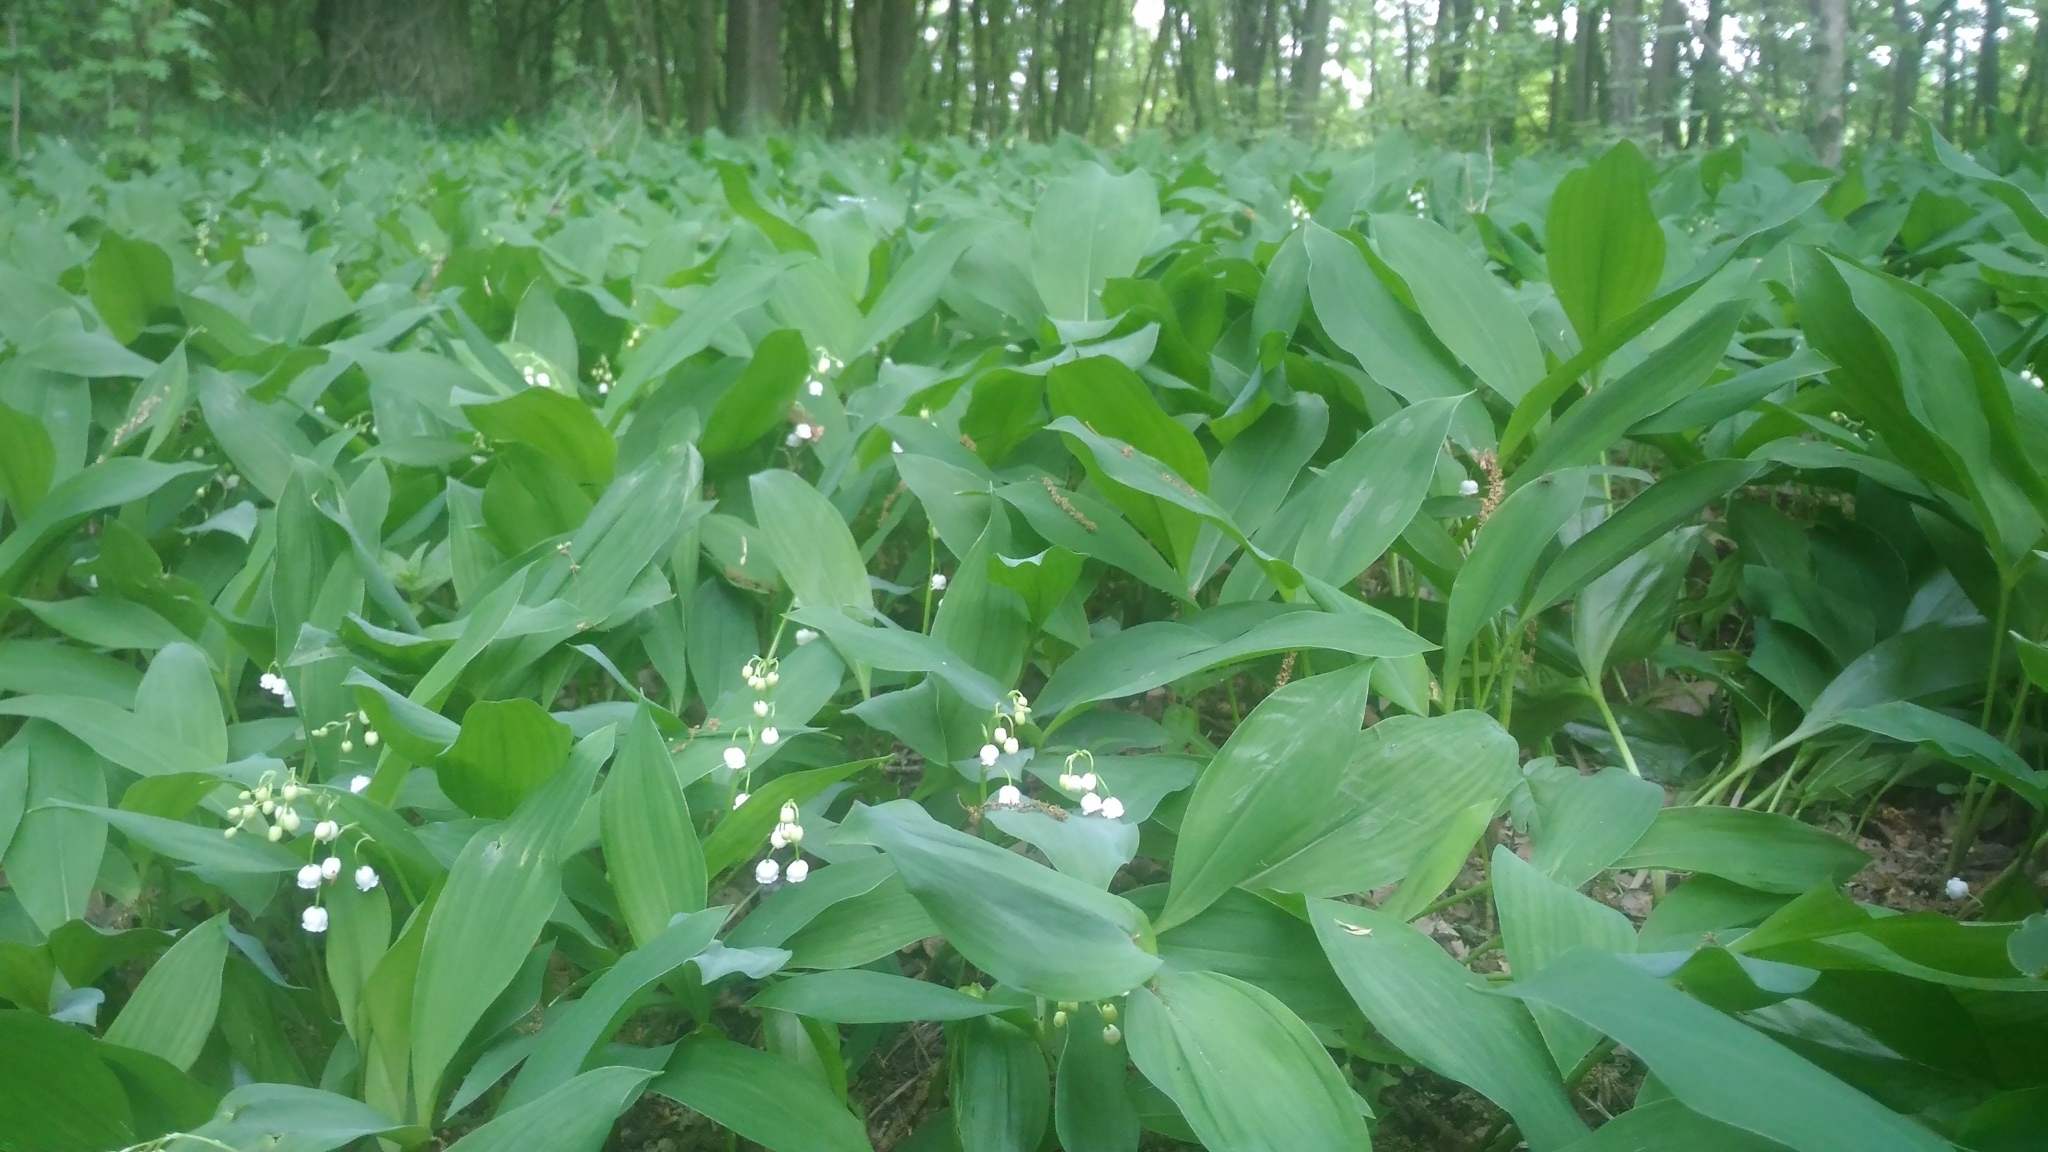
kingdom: Plantae
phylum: Tracheophyta
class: Liliopsida
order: Asparagales
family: Asparagaceae
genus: Convallaria
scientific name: Convallaria majalis
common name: Lily-of-the-valley
